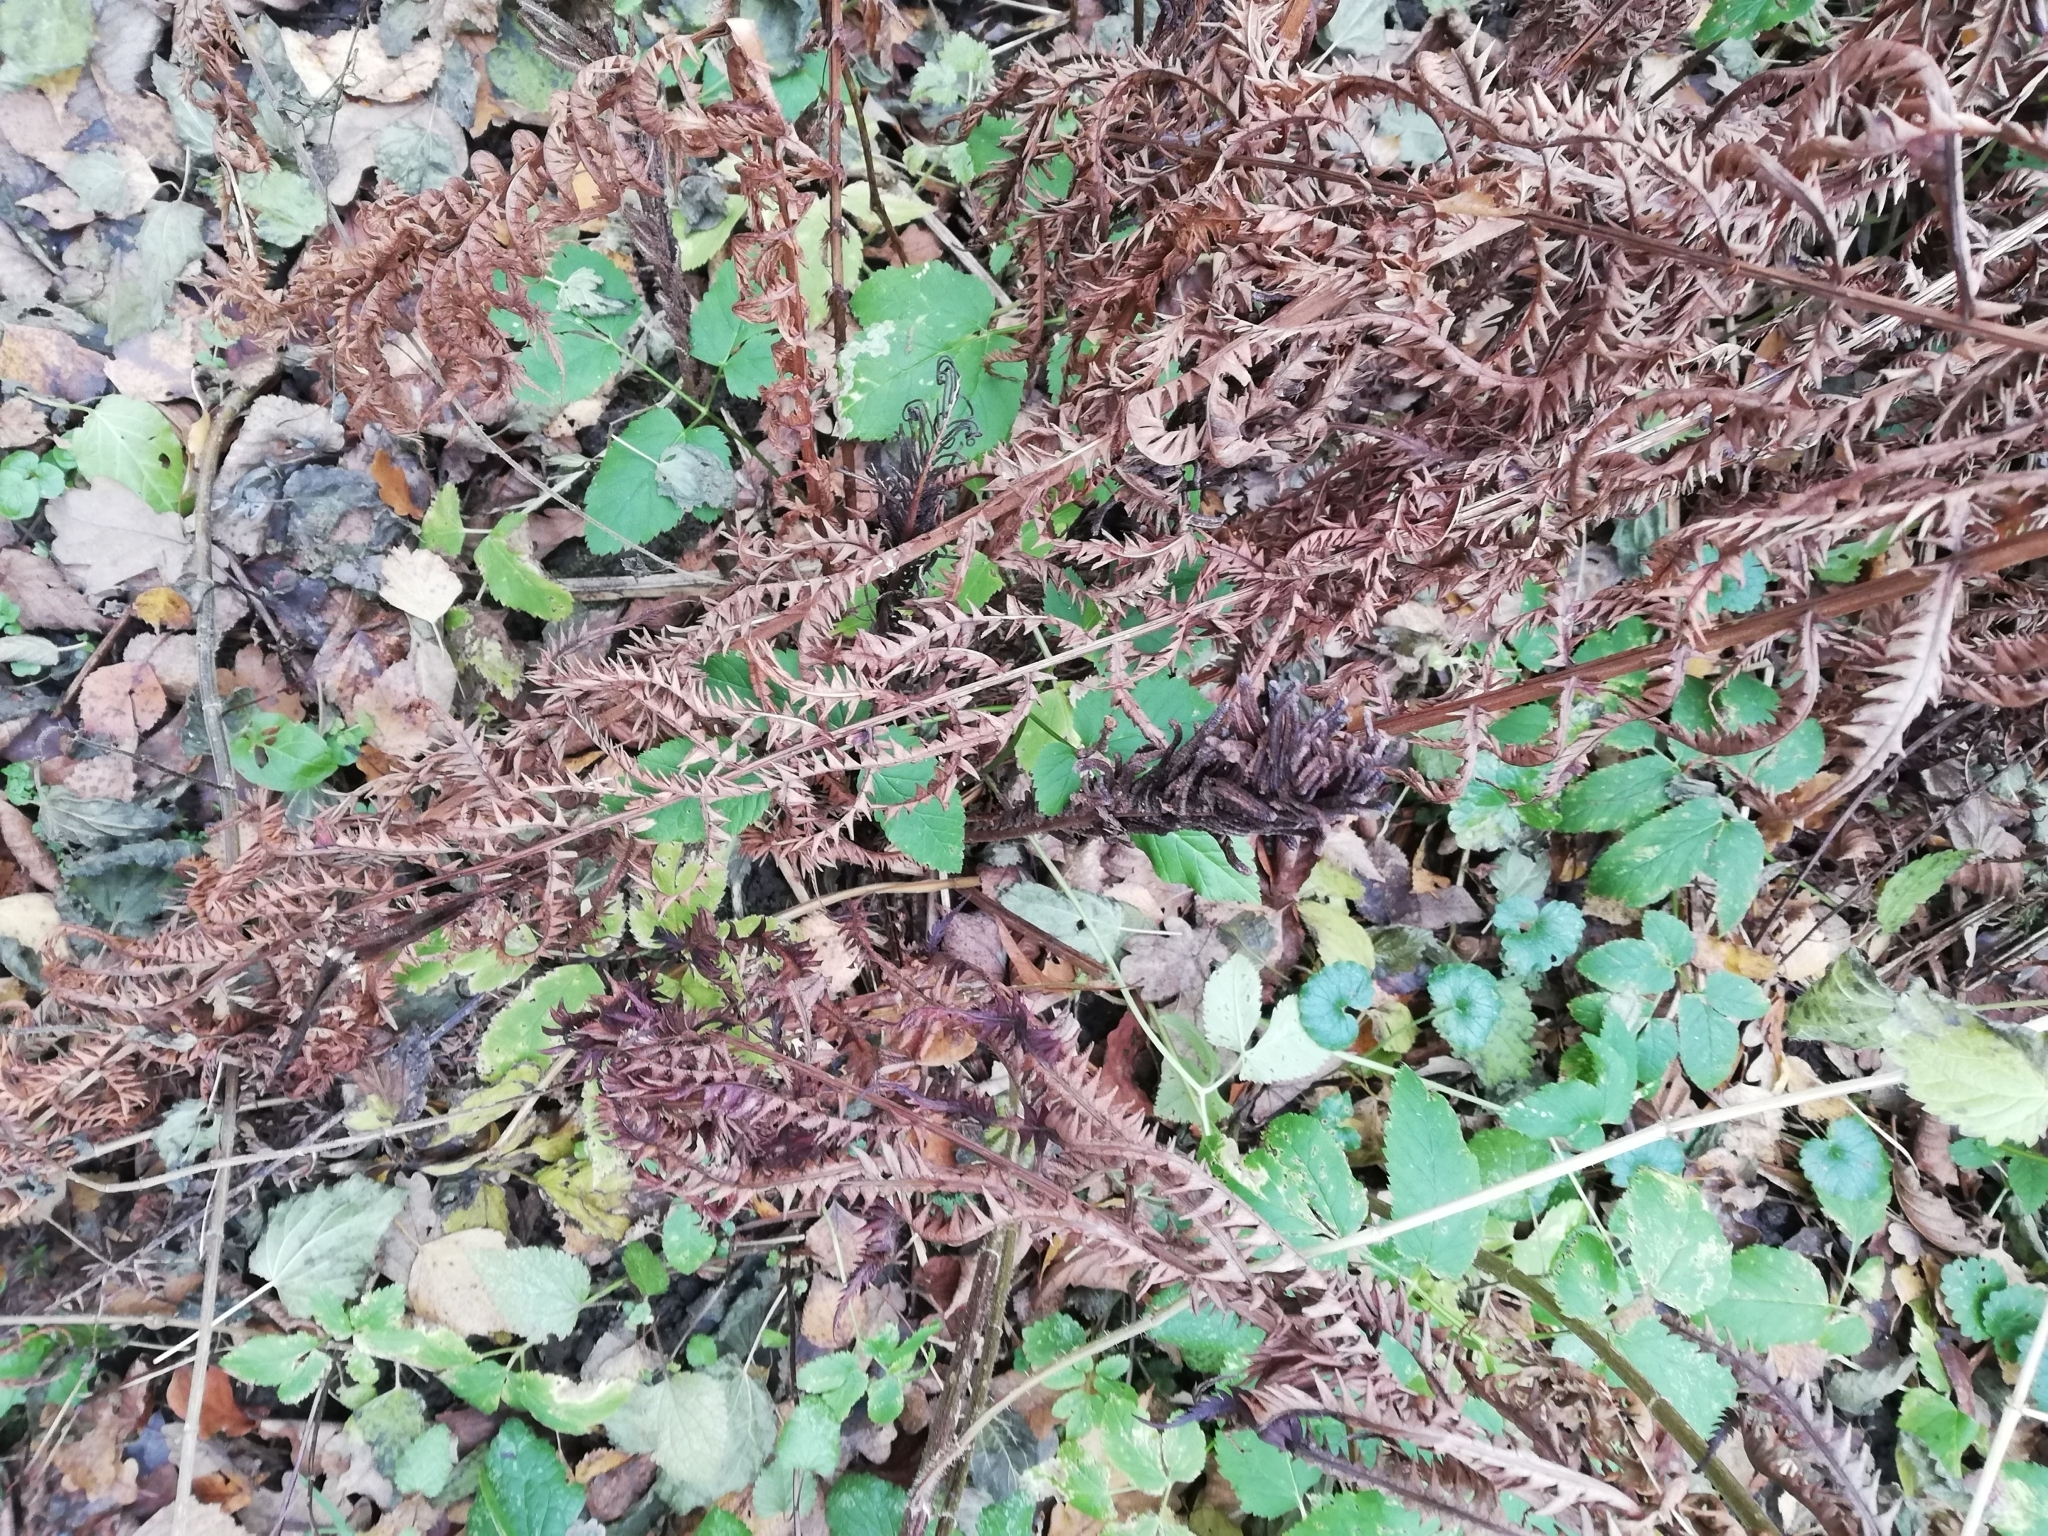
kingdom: Plantae
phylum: Tracheophyta
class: Polypodiopsida
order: Polypodiales
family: Onocleaceae
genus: Matteuccia
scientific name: Matteuccia struthiopteris
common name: Ostrich fern
